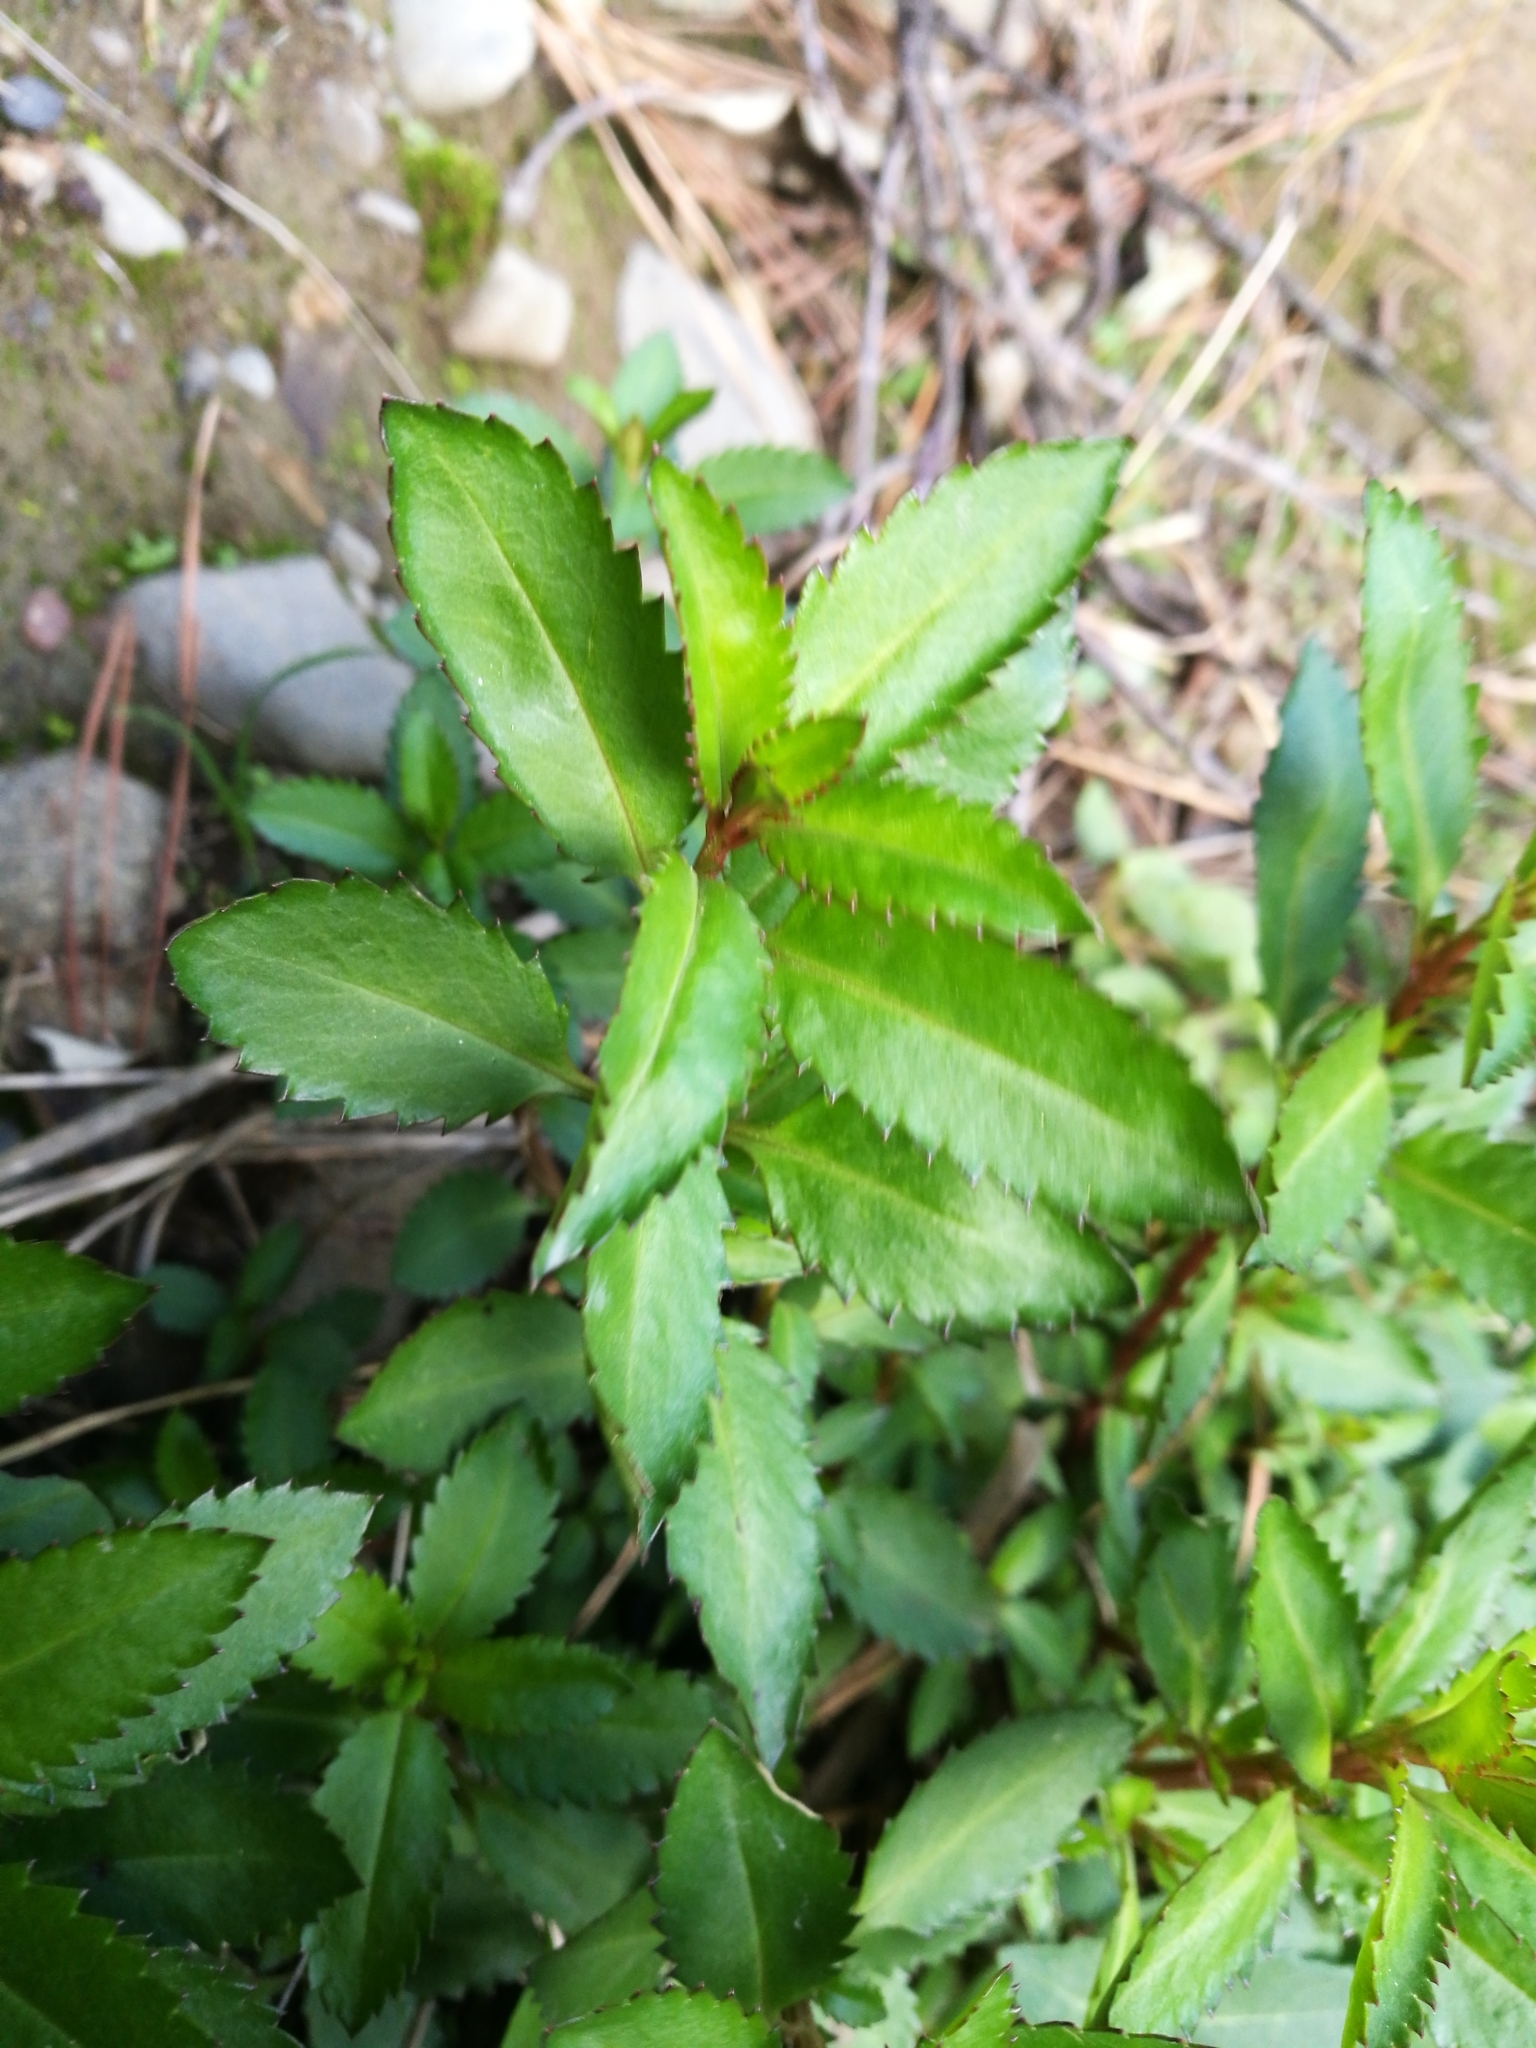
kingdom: Plantae
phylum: Tracheophyta
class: Magnoliopsida
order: Saxifragales
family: Haloragaceae
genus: Haloragis
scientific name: Haloragis erecta
